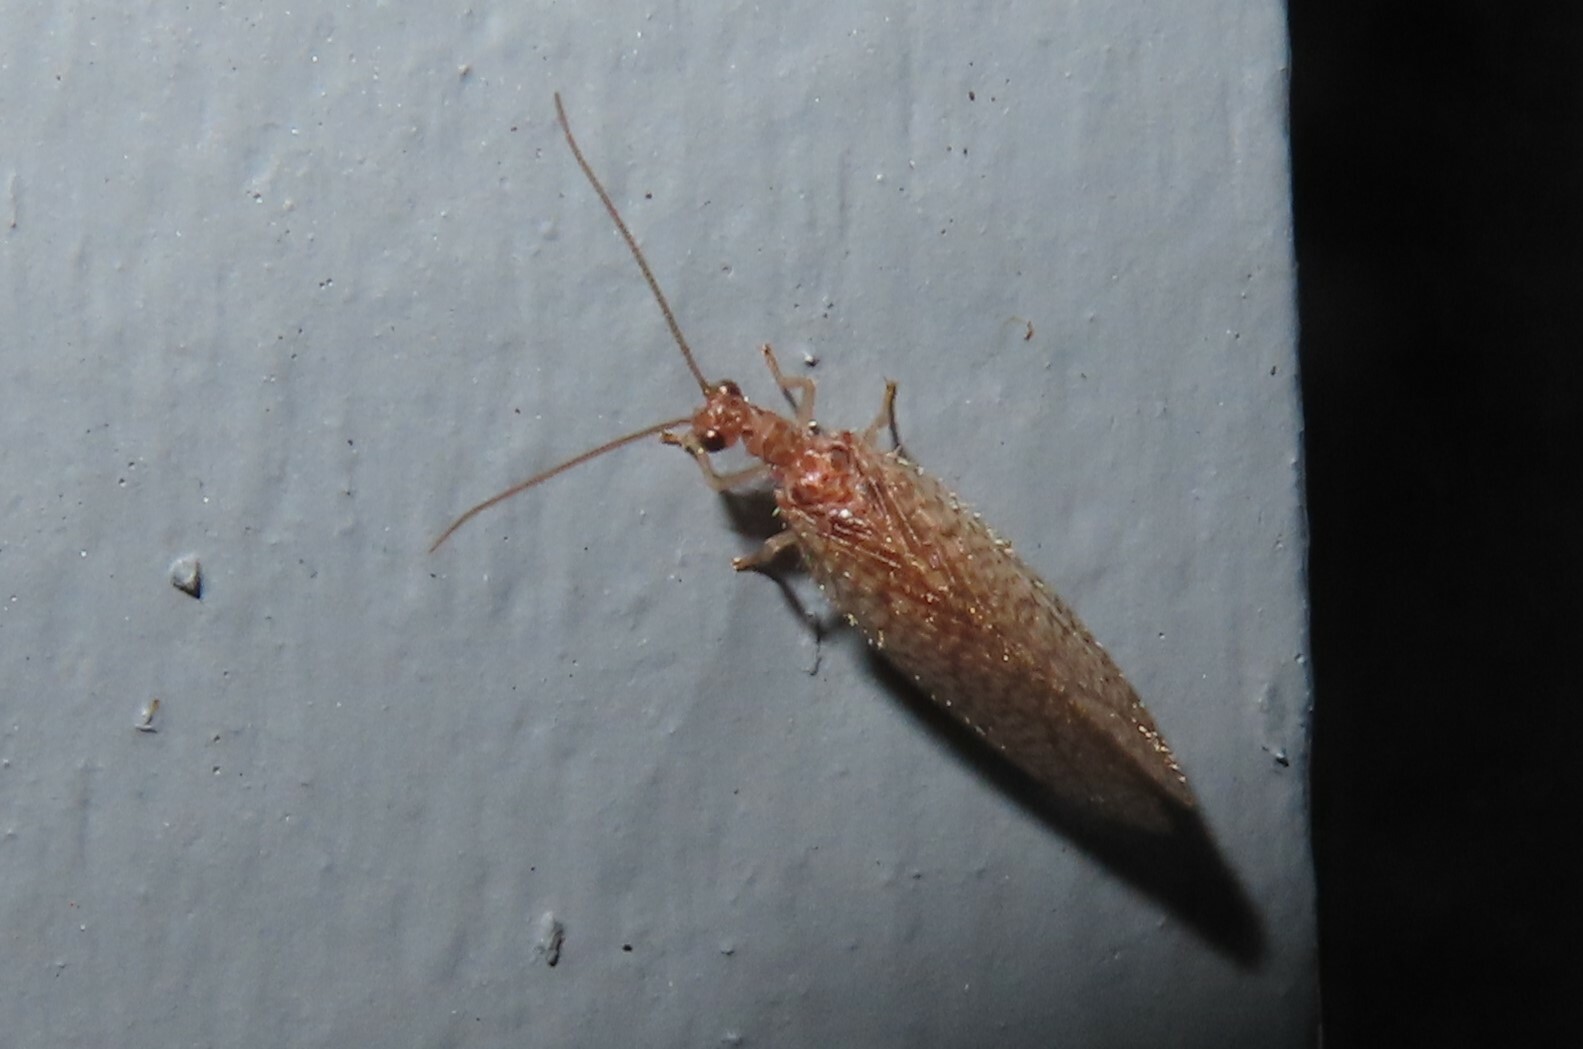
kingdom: Animalia
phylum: Arthropoda
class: Insecta
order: Neuroptera
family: Hemerobiidae
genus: Micromus
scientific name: Micromus posticus
